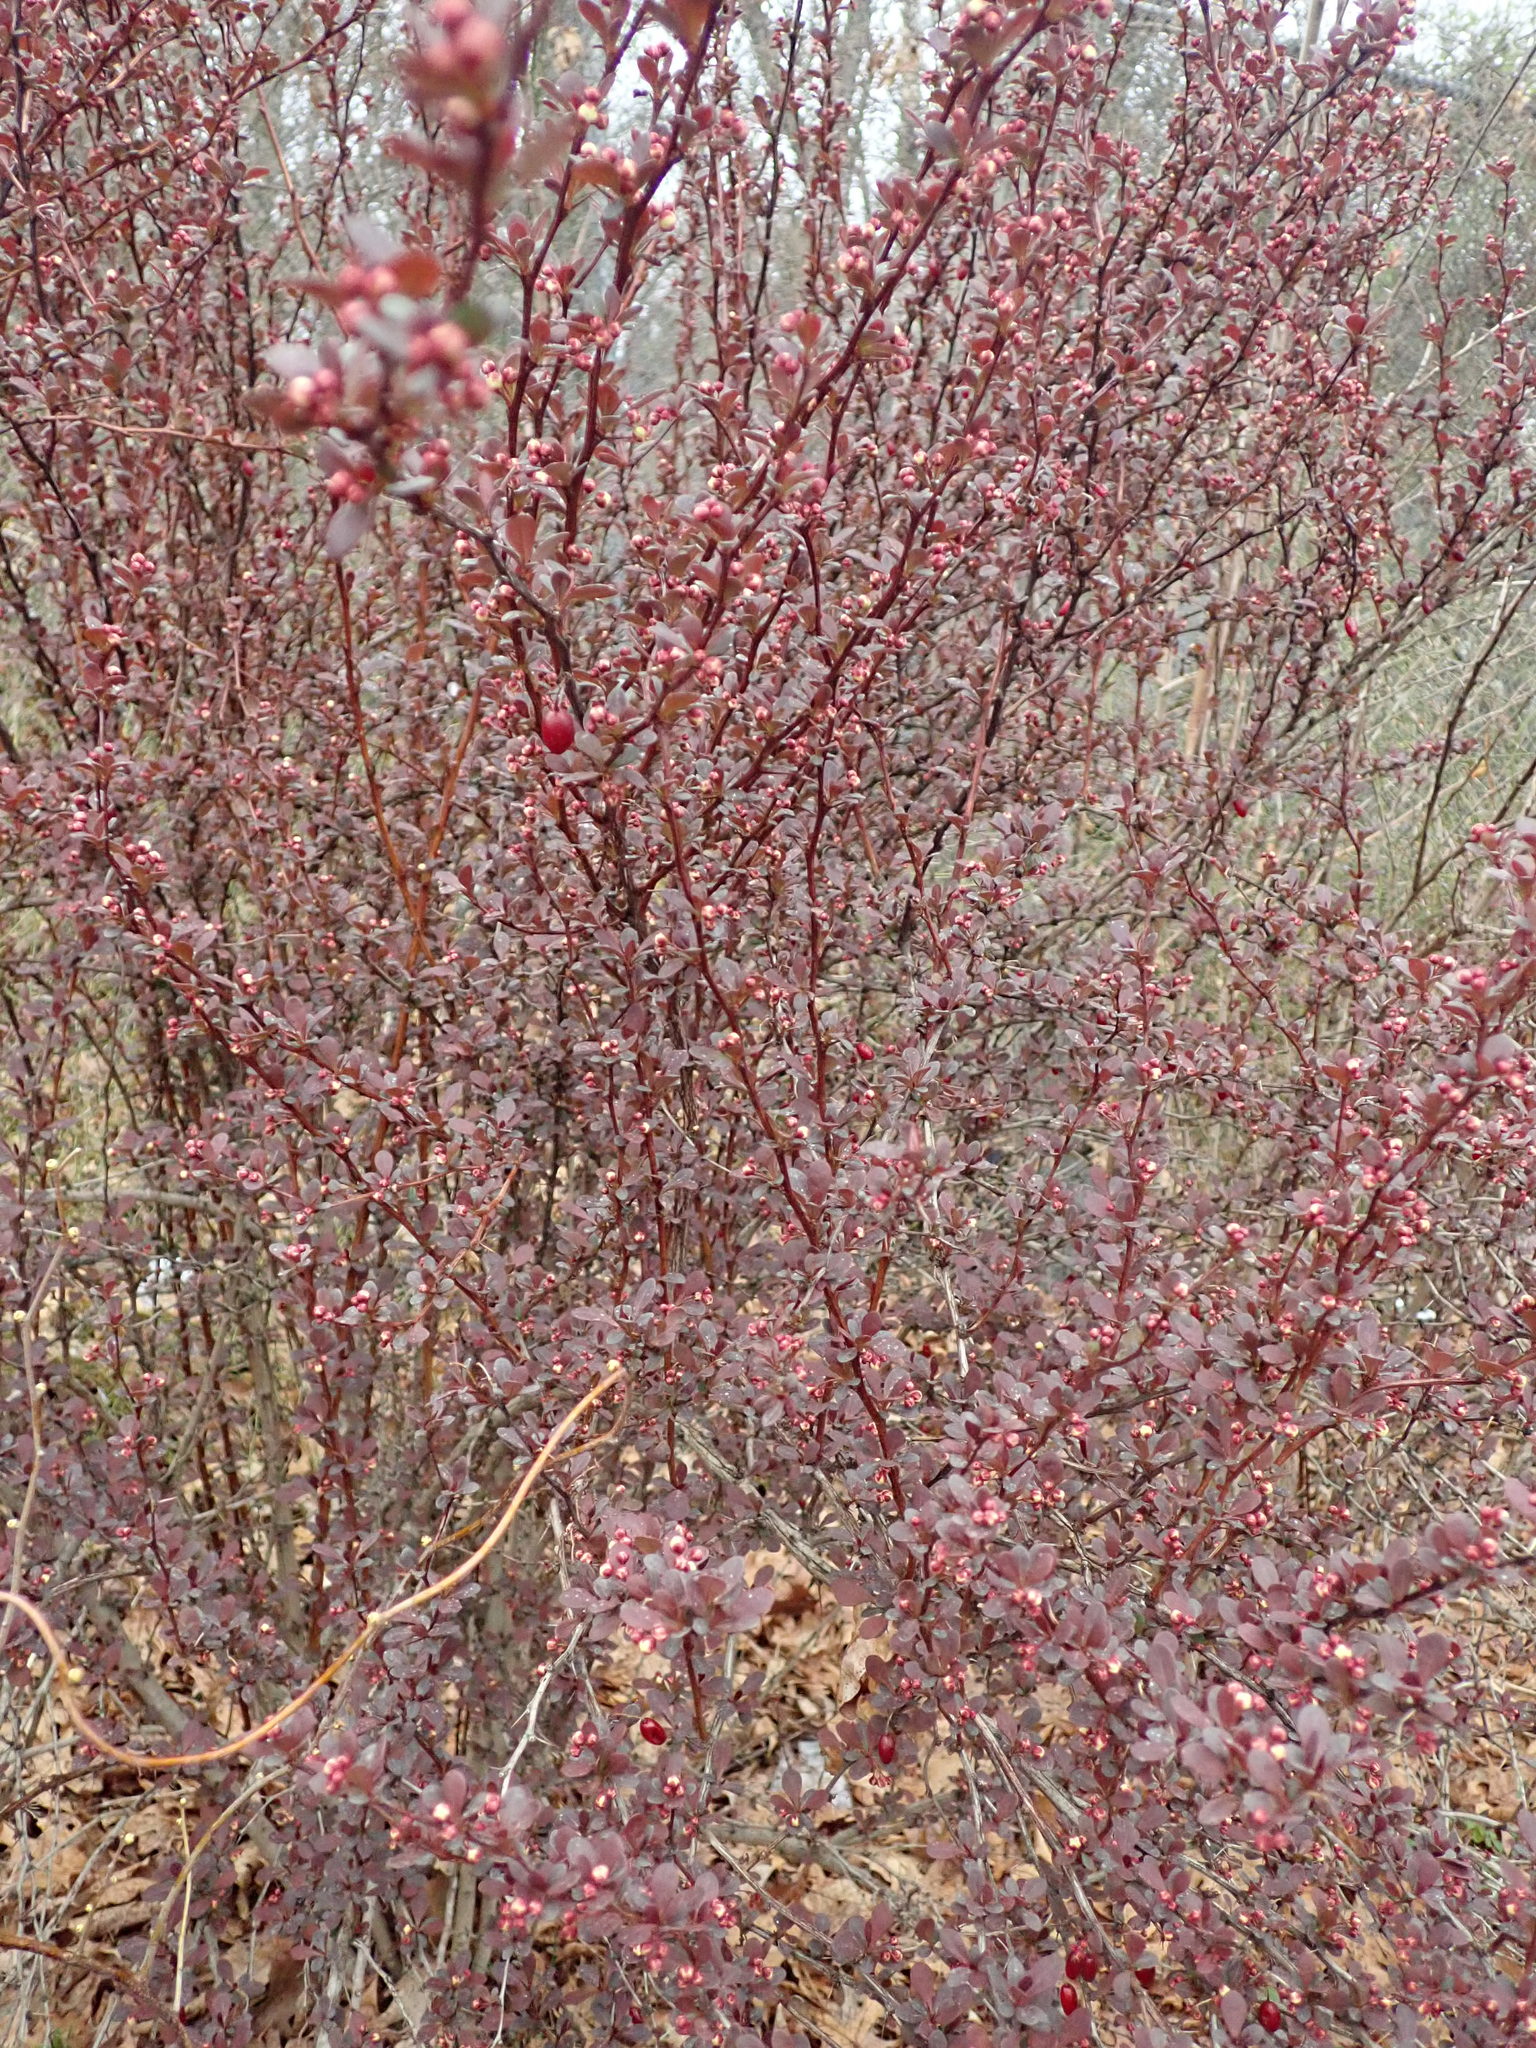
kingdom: Plantae
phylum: Tracheophyta
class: Magnoliopsida
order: Ranunculales
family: Berberidaceae
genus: Berberis
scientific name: Berberis thunbergii
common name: Japanese barberry
